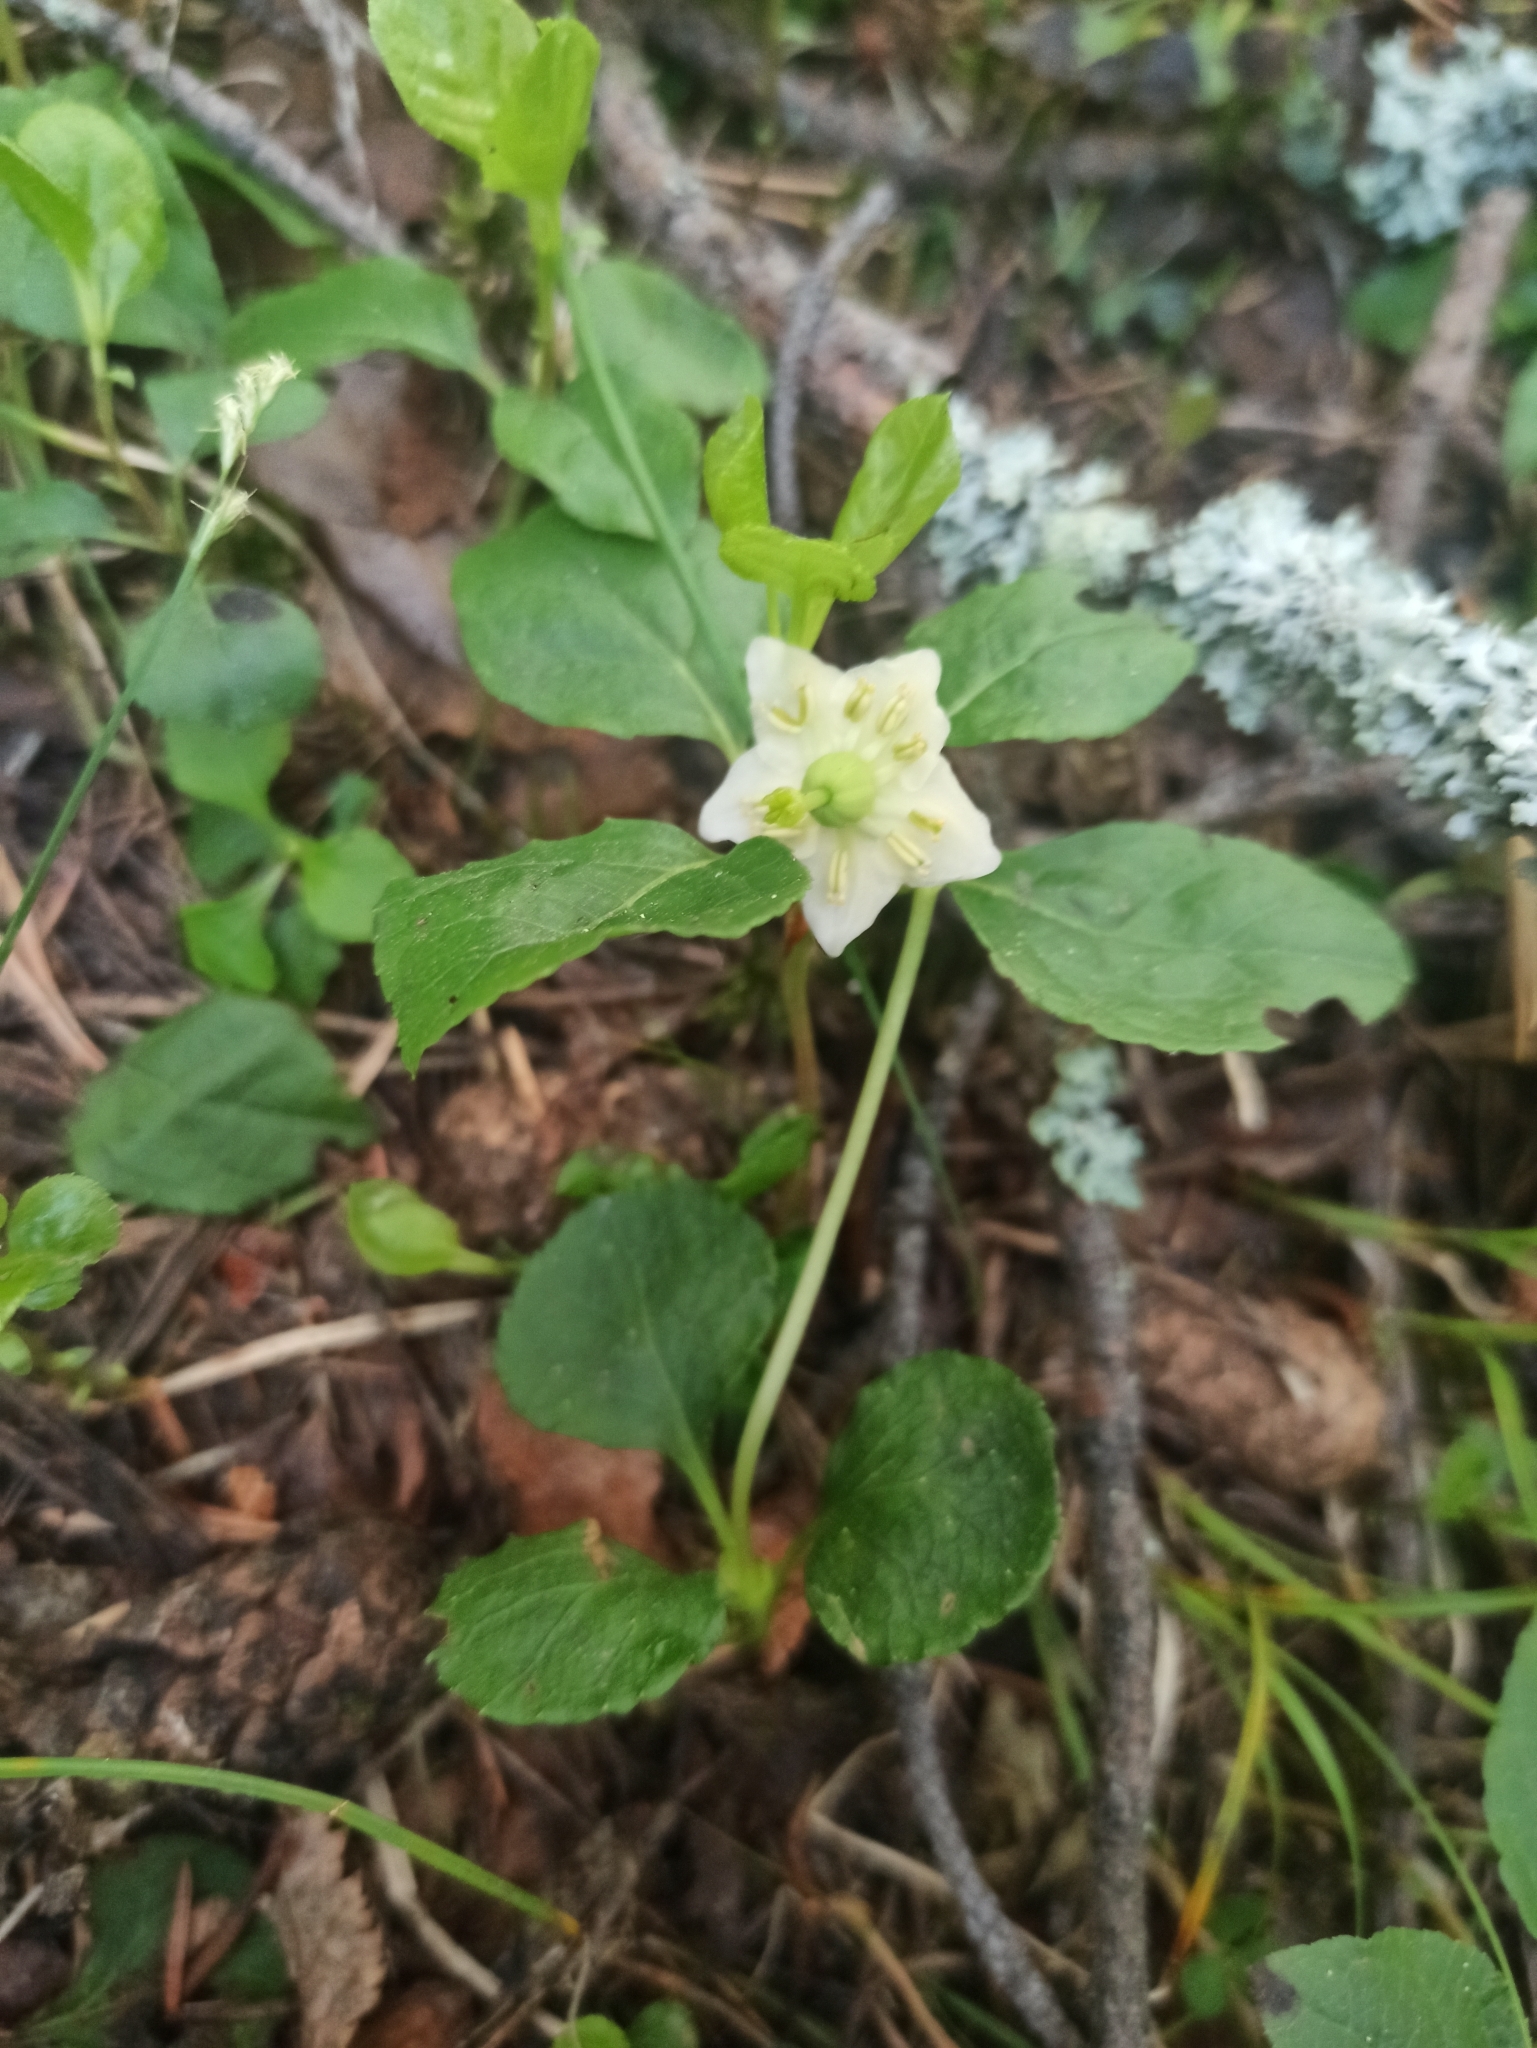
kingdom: Plantae
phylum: Tracheophyta
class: Magnoliopsida
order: Ericales
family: Ericaceae
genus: Moneses
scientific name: Moneses uniflora
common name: One-flowered wintergreen
